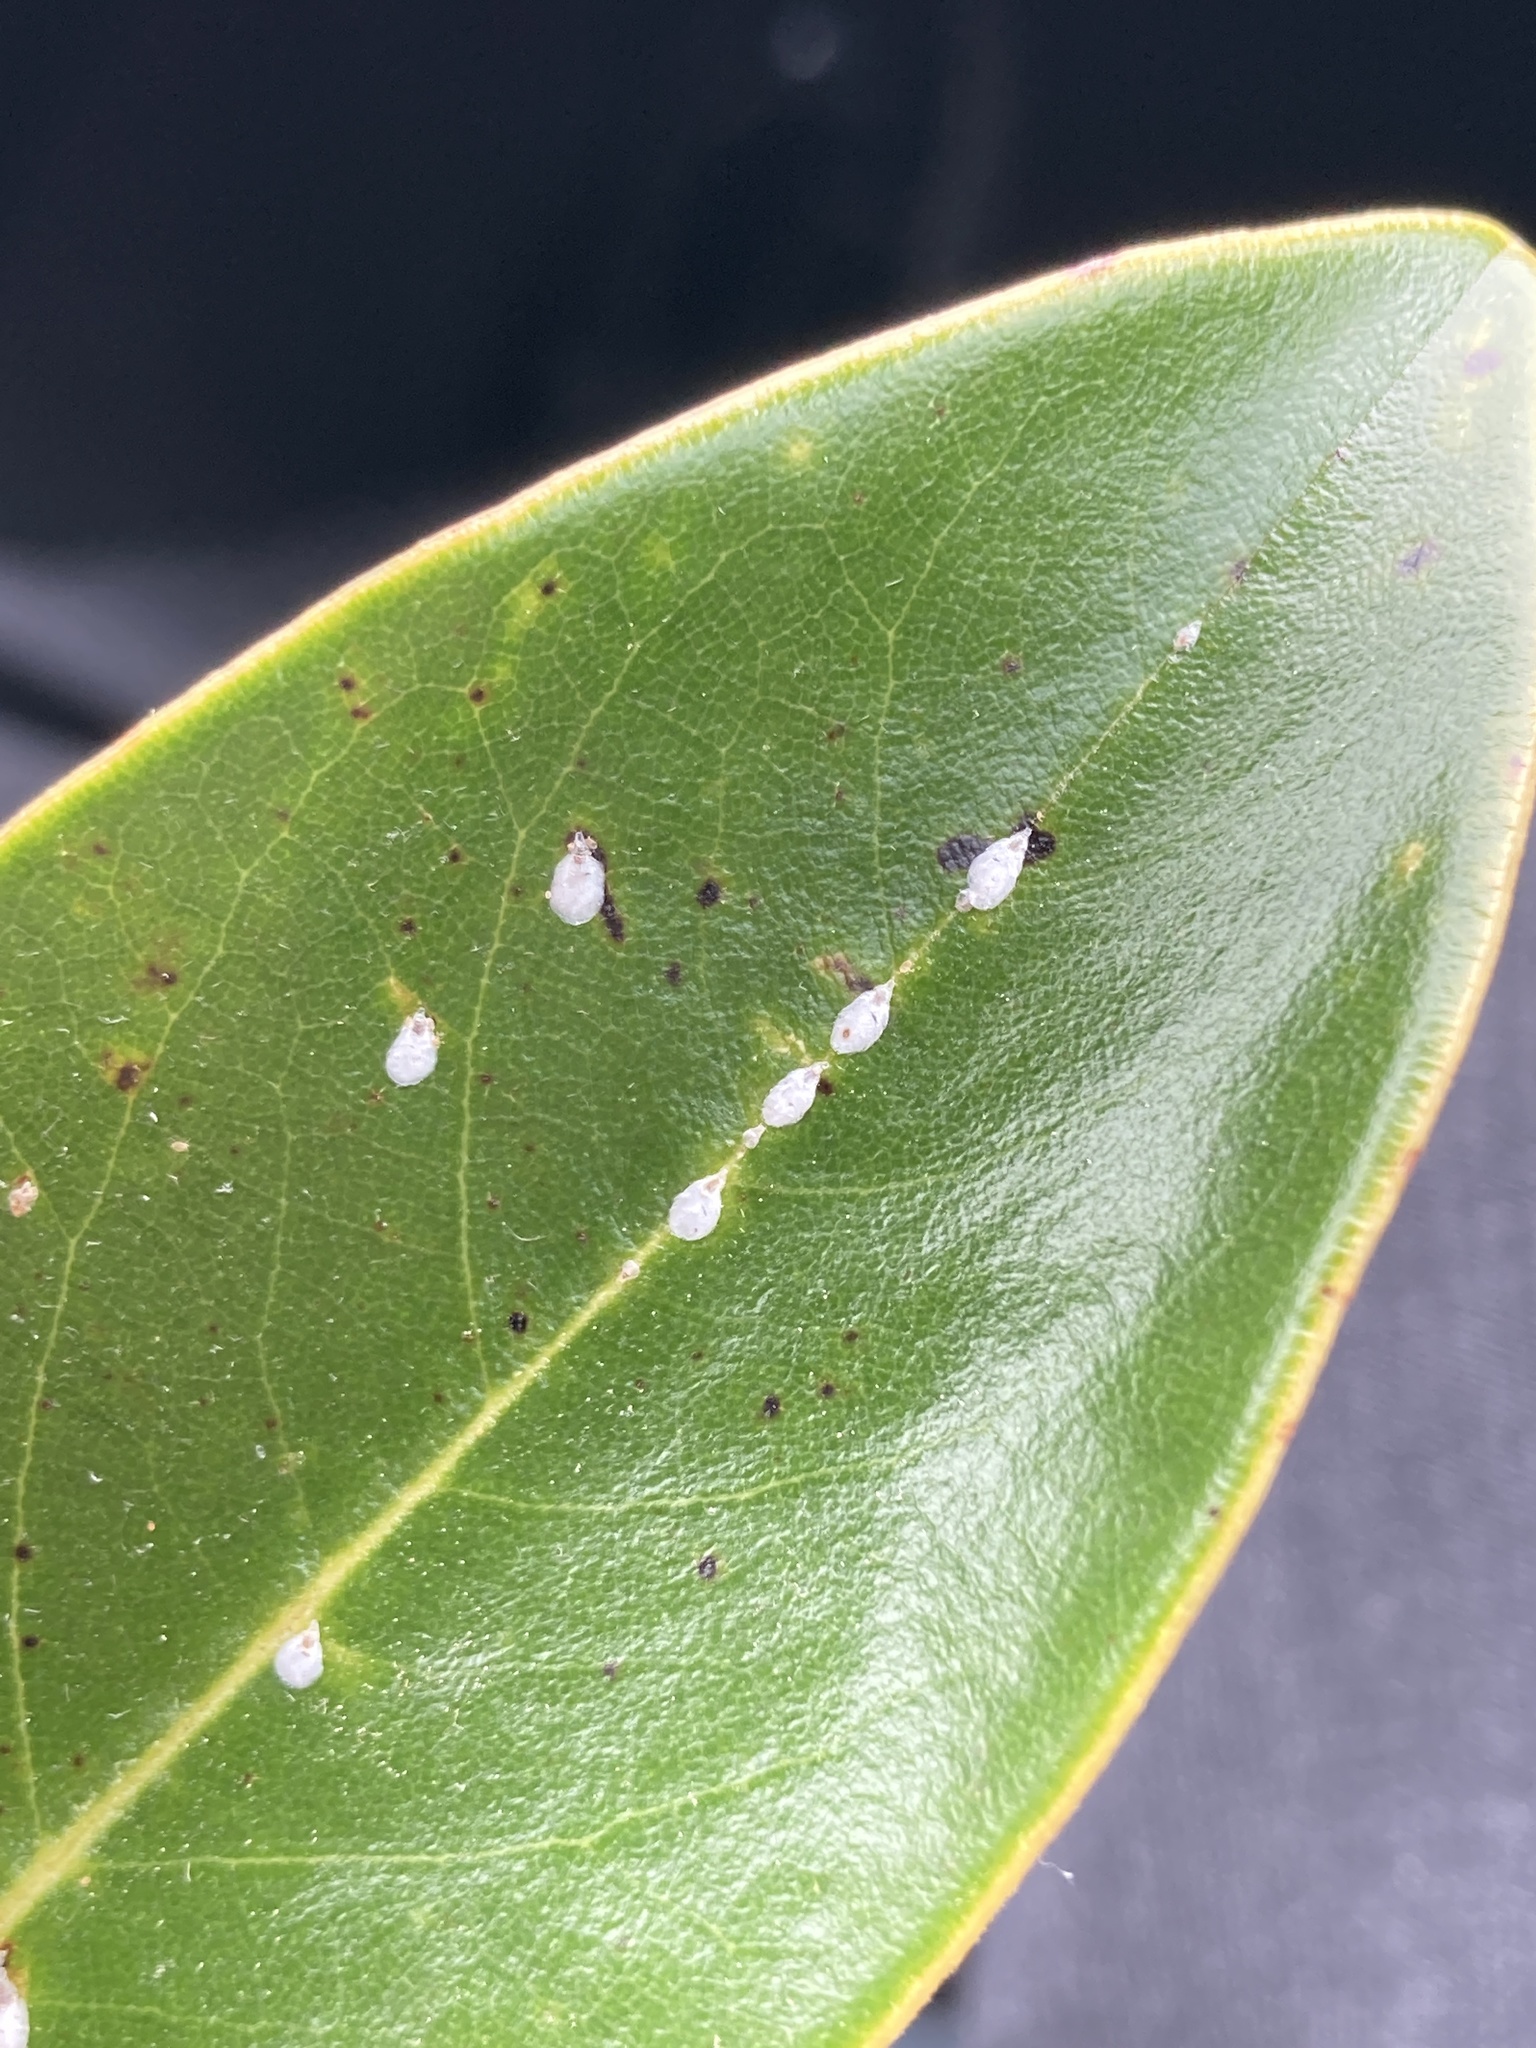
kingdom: Animalia
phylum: Arthropoda
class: Insecta
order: Hemiptera
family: Diaspididae
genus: Pseudaulacaspis
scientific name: Pseudaulacaspis cockerelli
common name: False oleander scale
